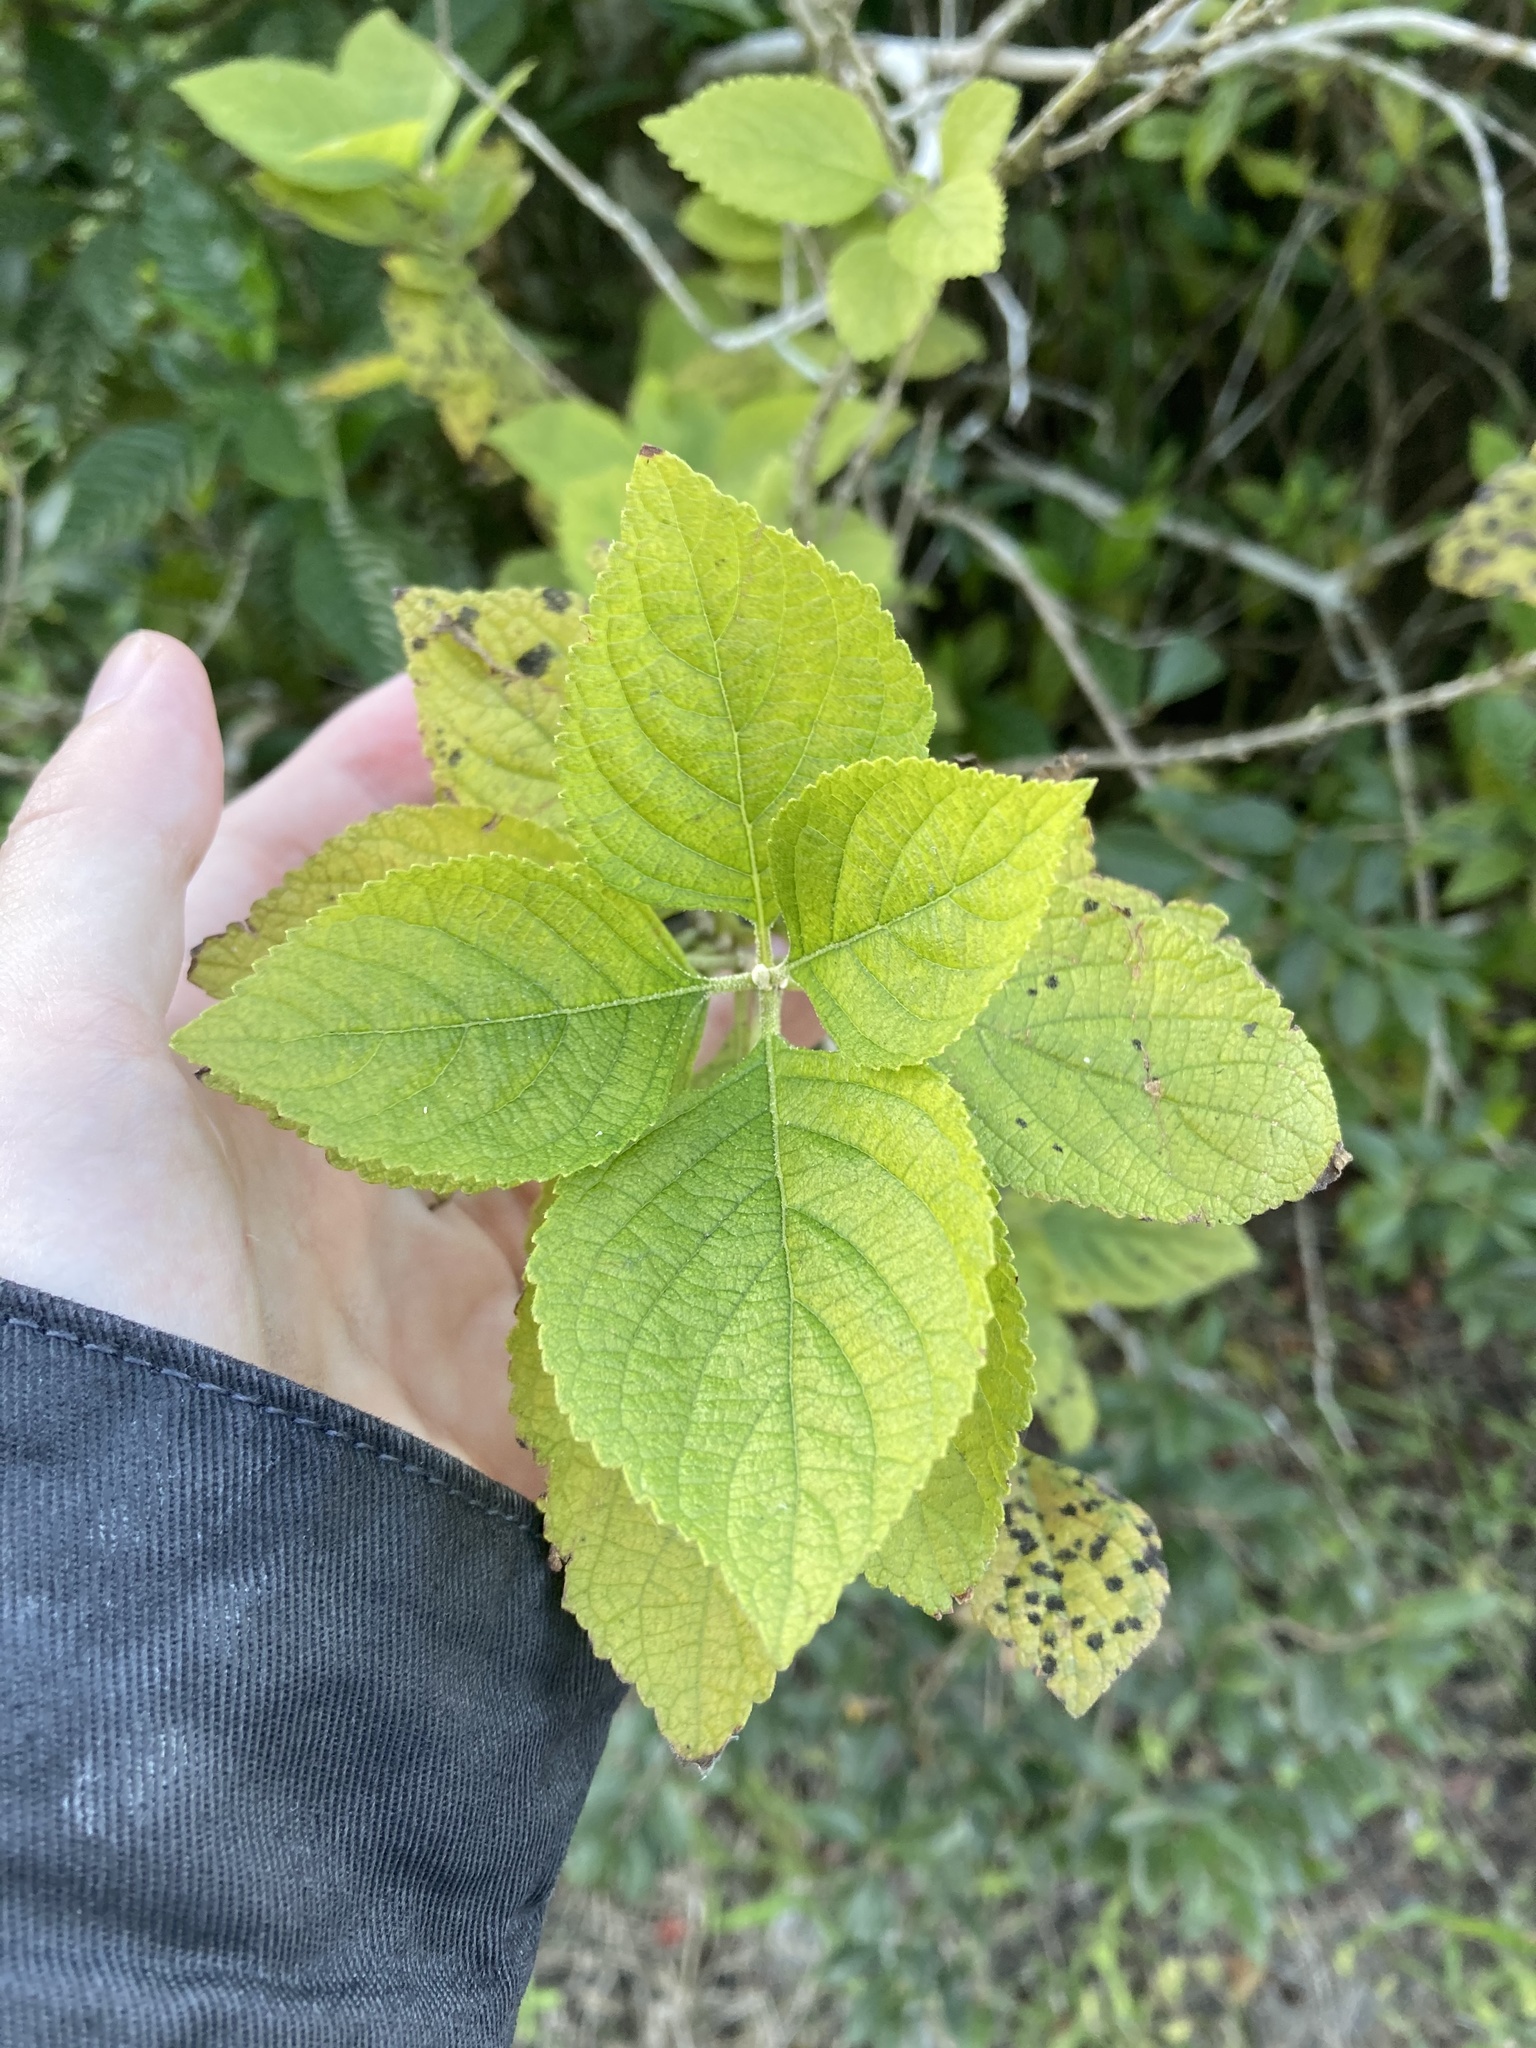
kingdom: Plantae
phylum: Tracheophyta
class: Magnoliopsida
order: Lamiales
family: Lamiaceae
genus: Callicarpa
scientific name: Callicarpa americana
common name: American beautyberry
